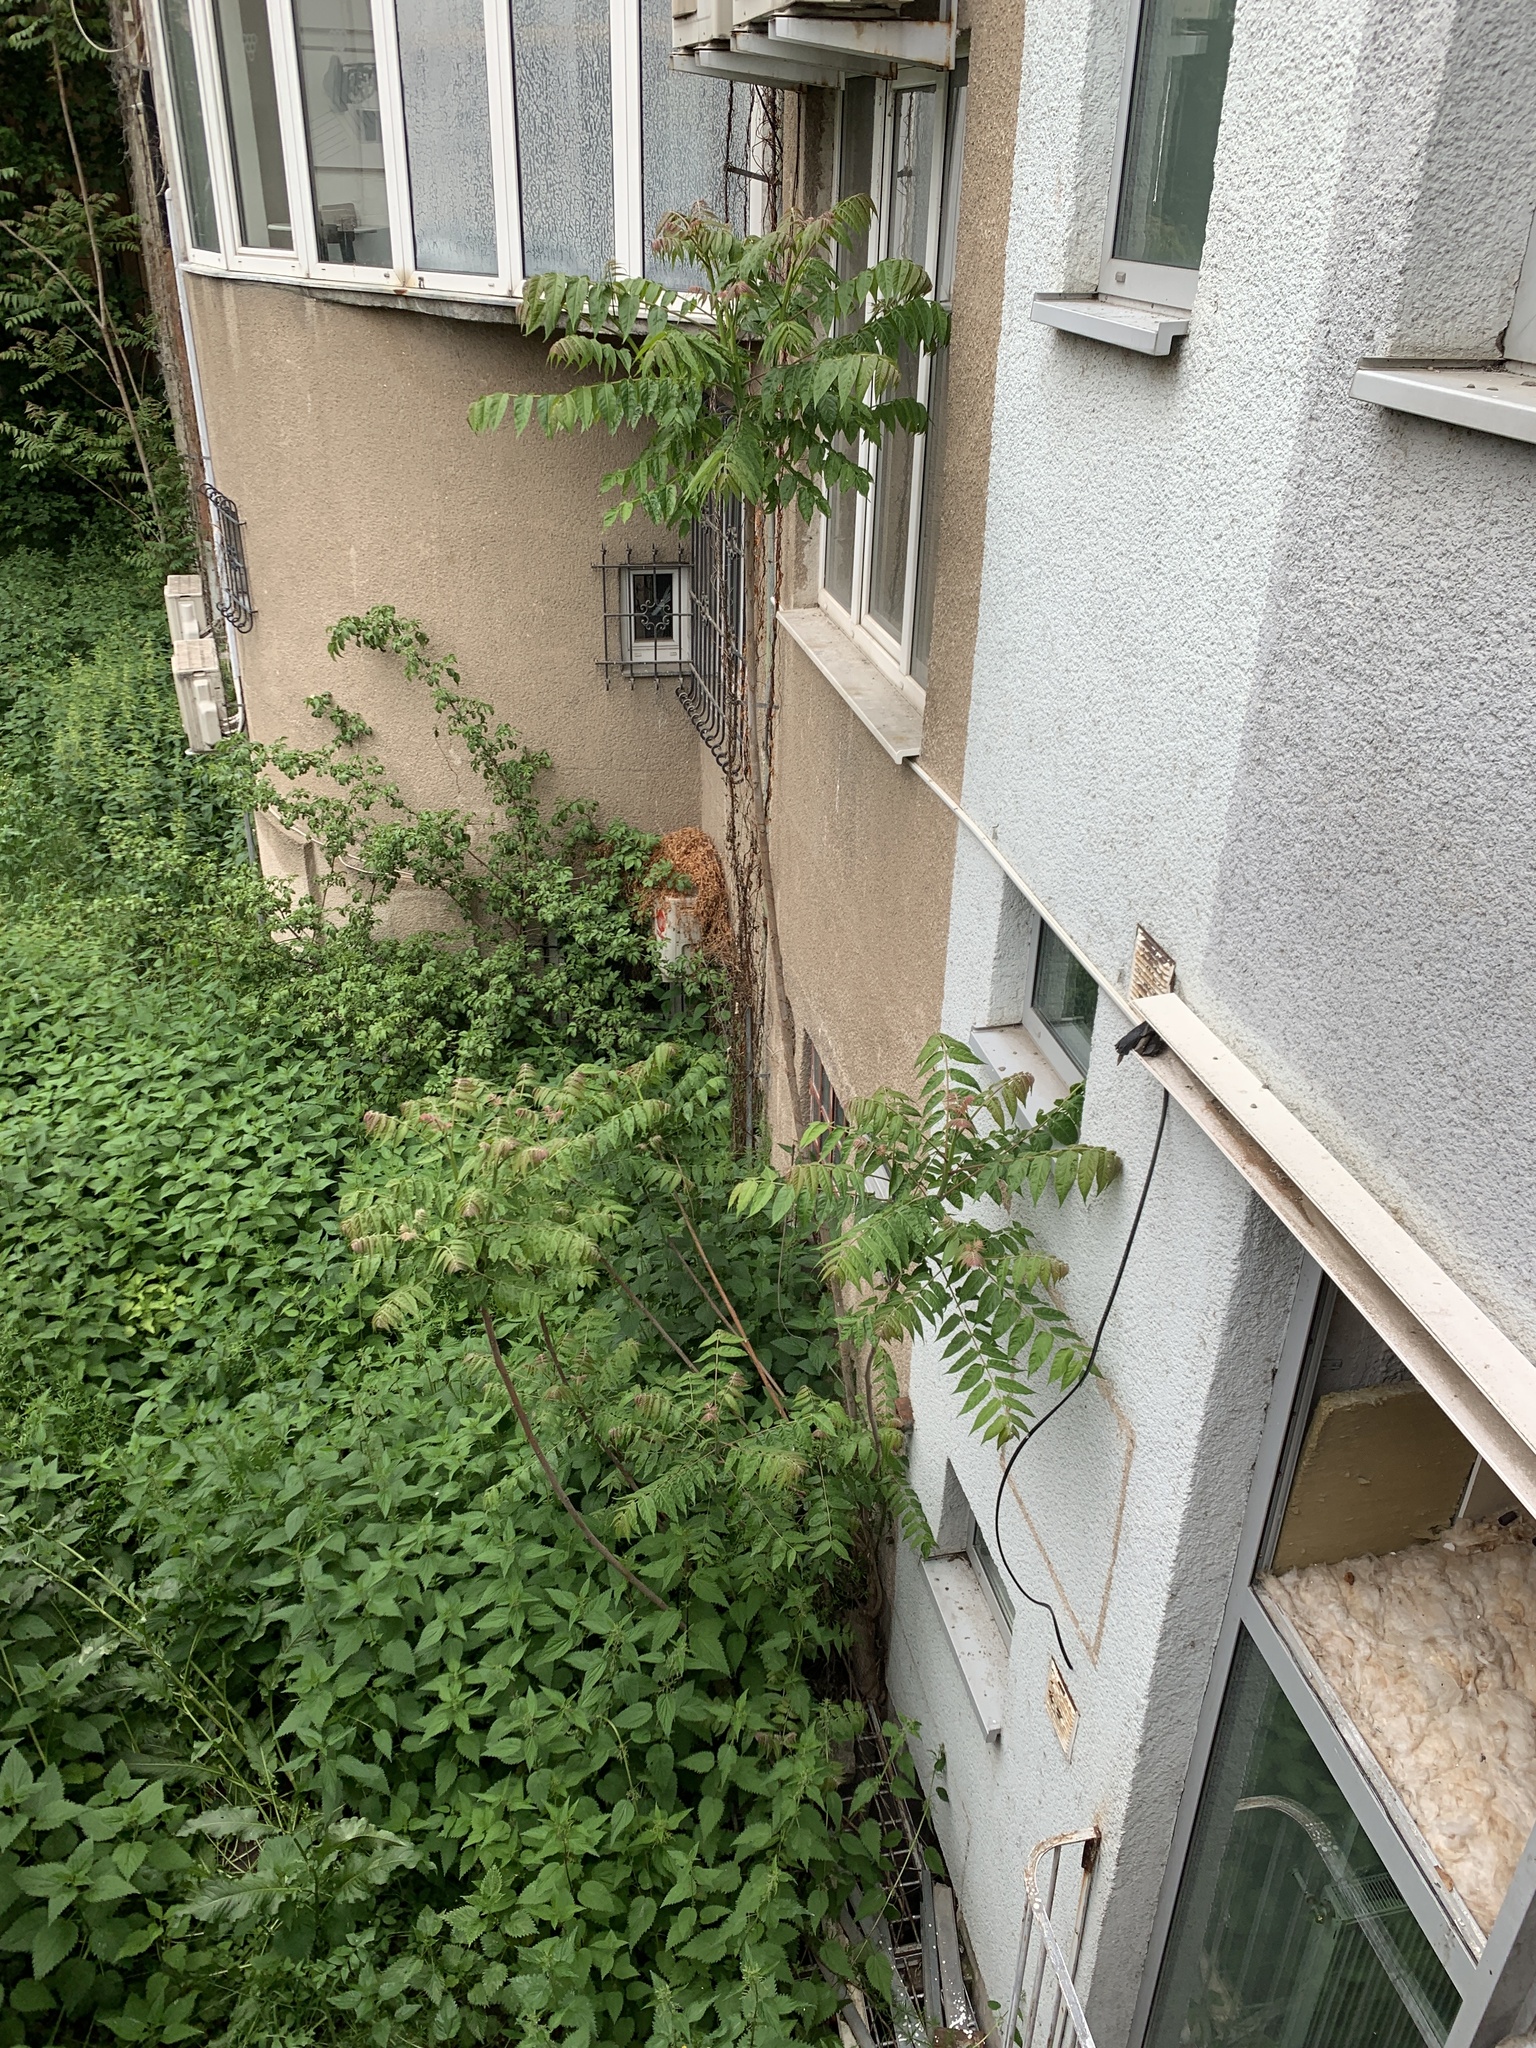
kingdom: Plantae
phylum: Tracheophyta
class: Magnoliopsida
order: Sapindales
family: Simaroubaceae
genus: Ailanthus
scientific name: Ailanthus altissima
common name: Tree-of-heaven
